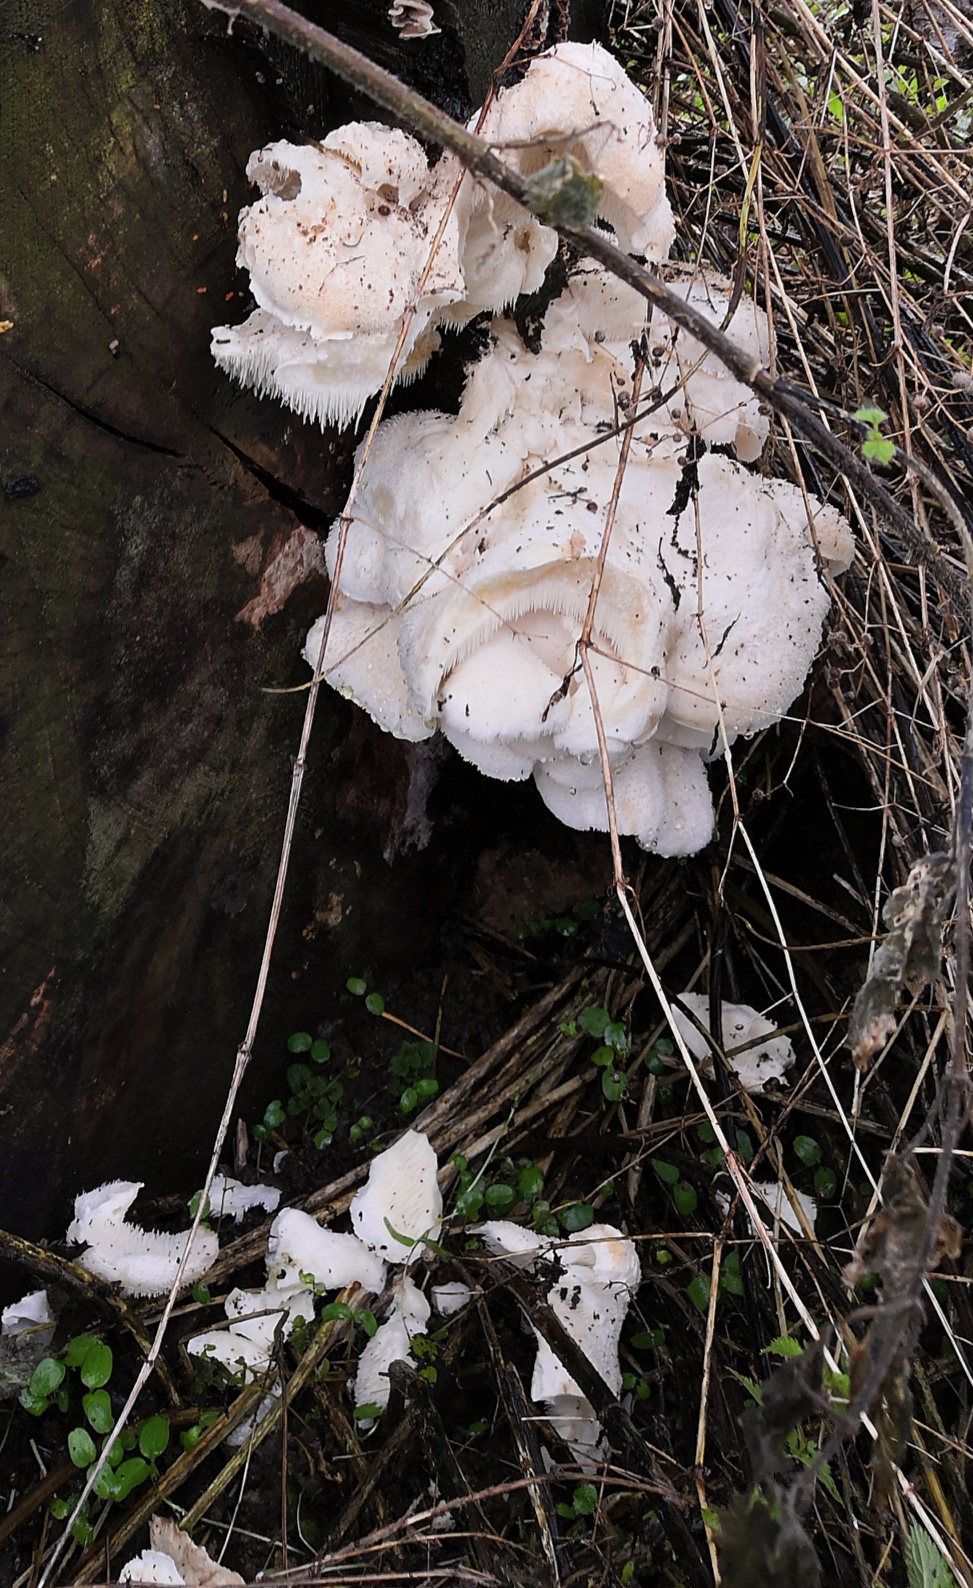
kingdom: Fungi
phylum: Basidiomycota
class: Agaricomycetes
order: Russulales
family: Hericiaceae
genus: Hericium
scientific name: Hericium cirrhatum
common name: Tiered tooth
